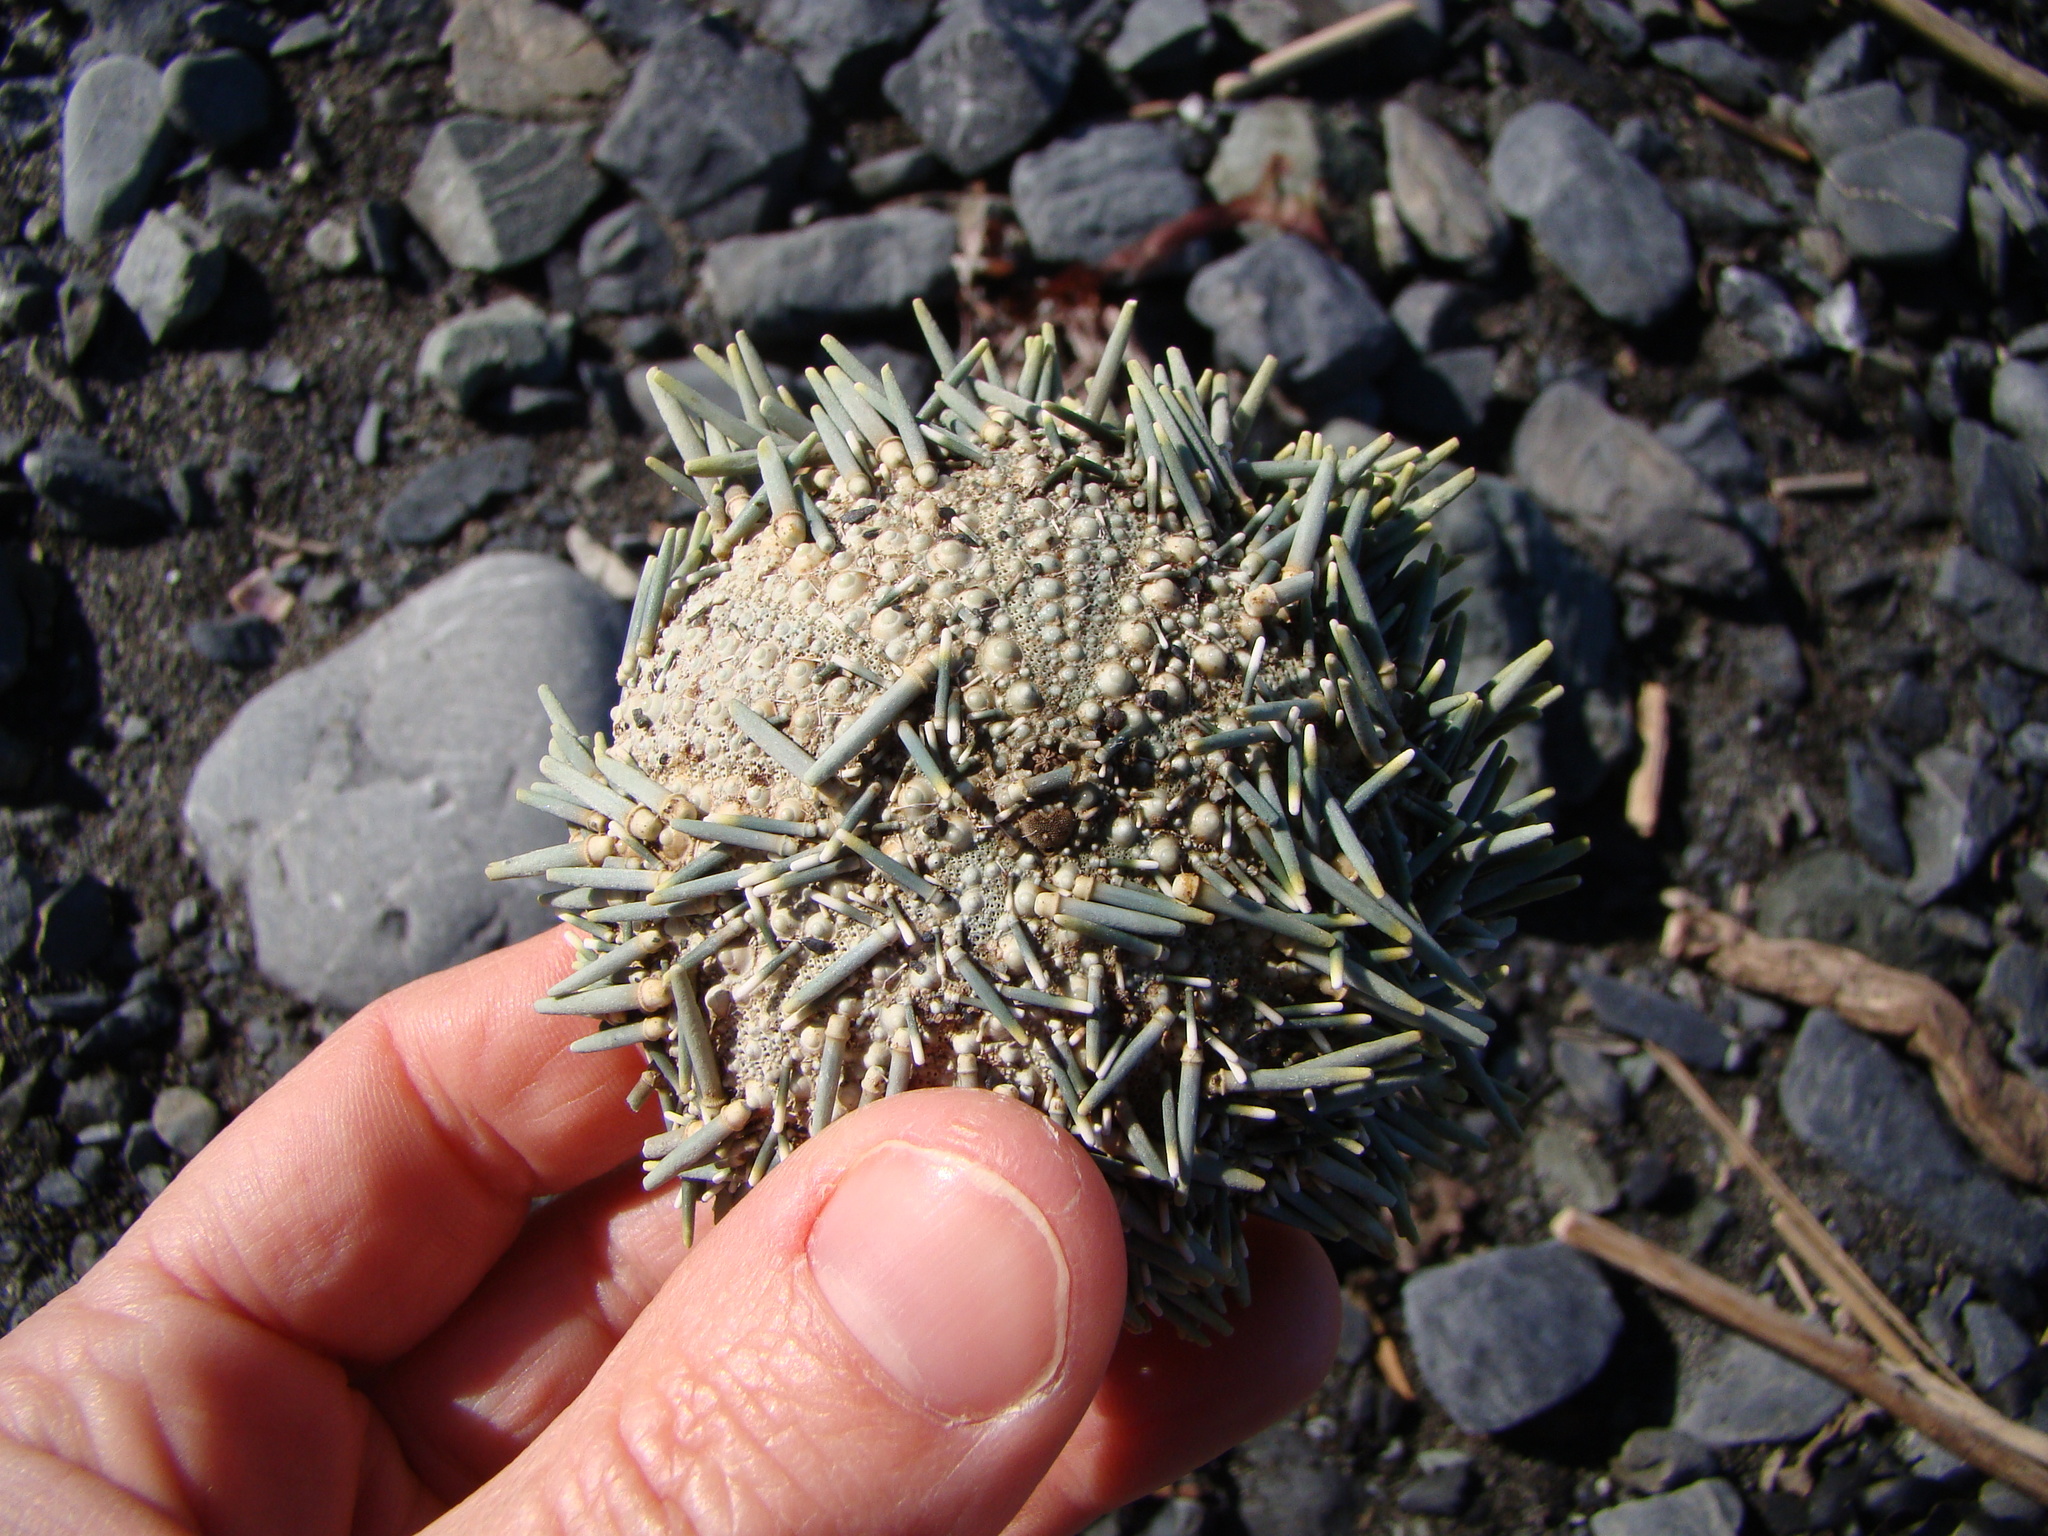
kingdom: Animalia
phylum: Echinodermata
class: Echinoidea
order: Camarodonta
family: Echinometridae
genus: Evechinus
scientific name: Evechinus chloroticus
